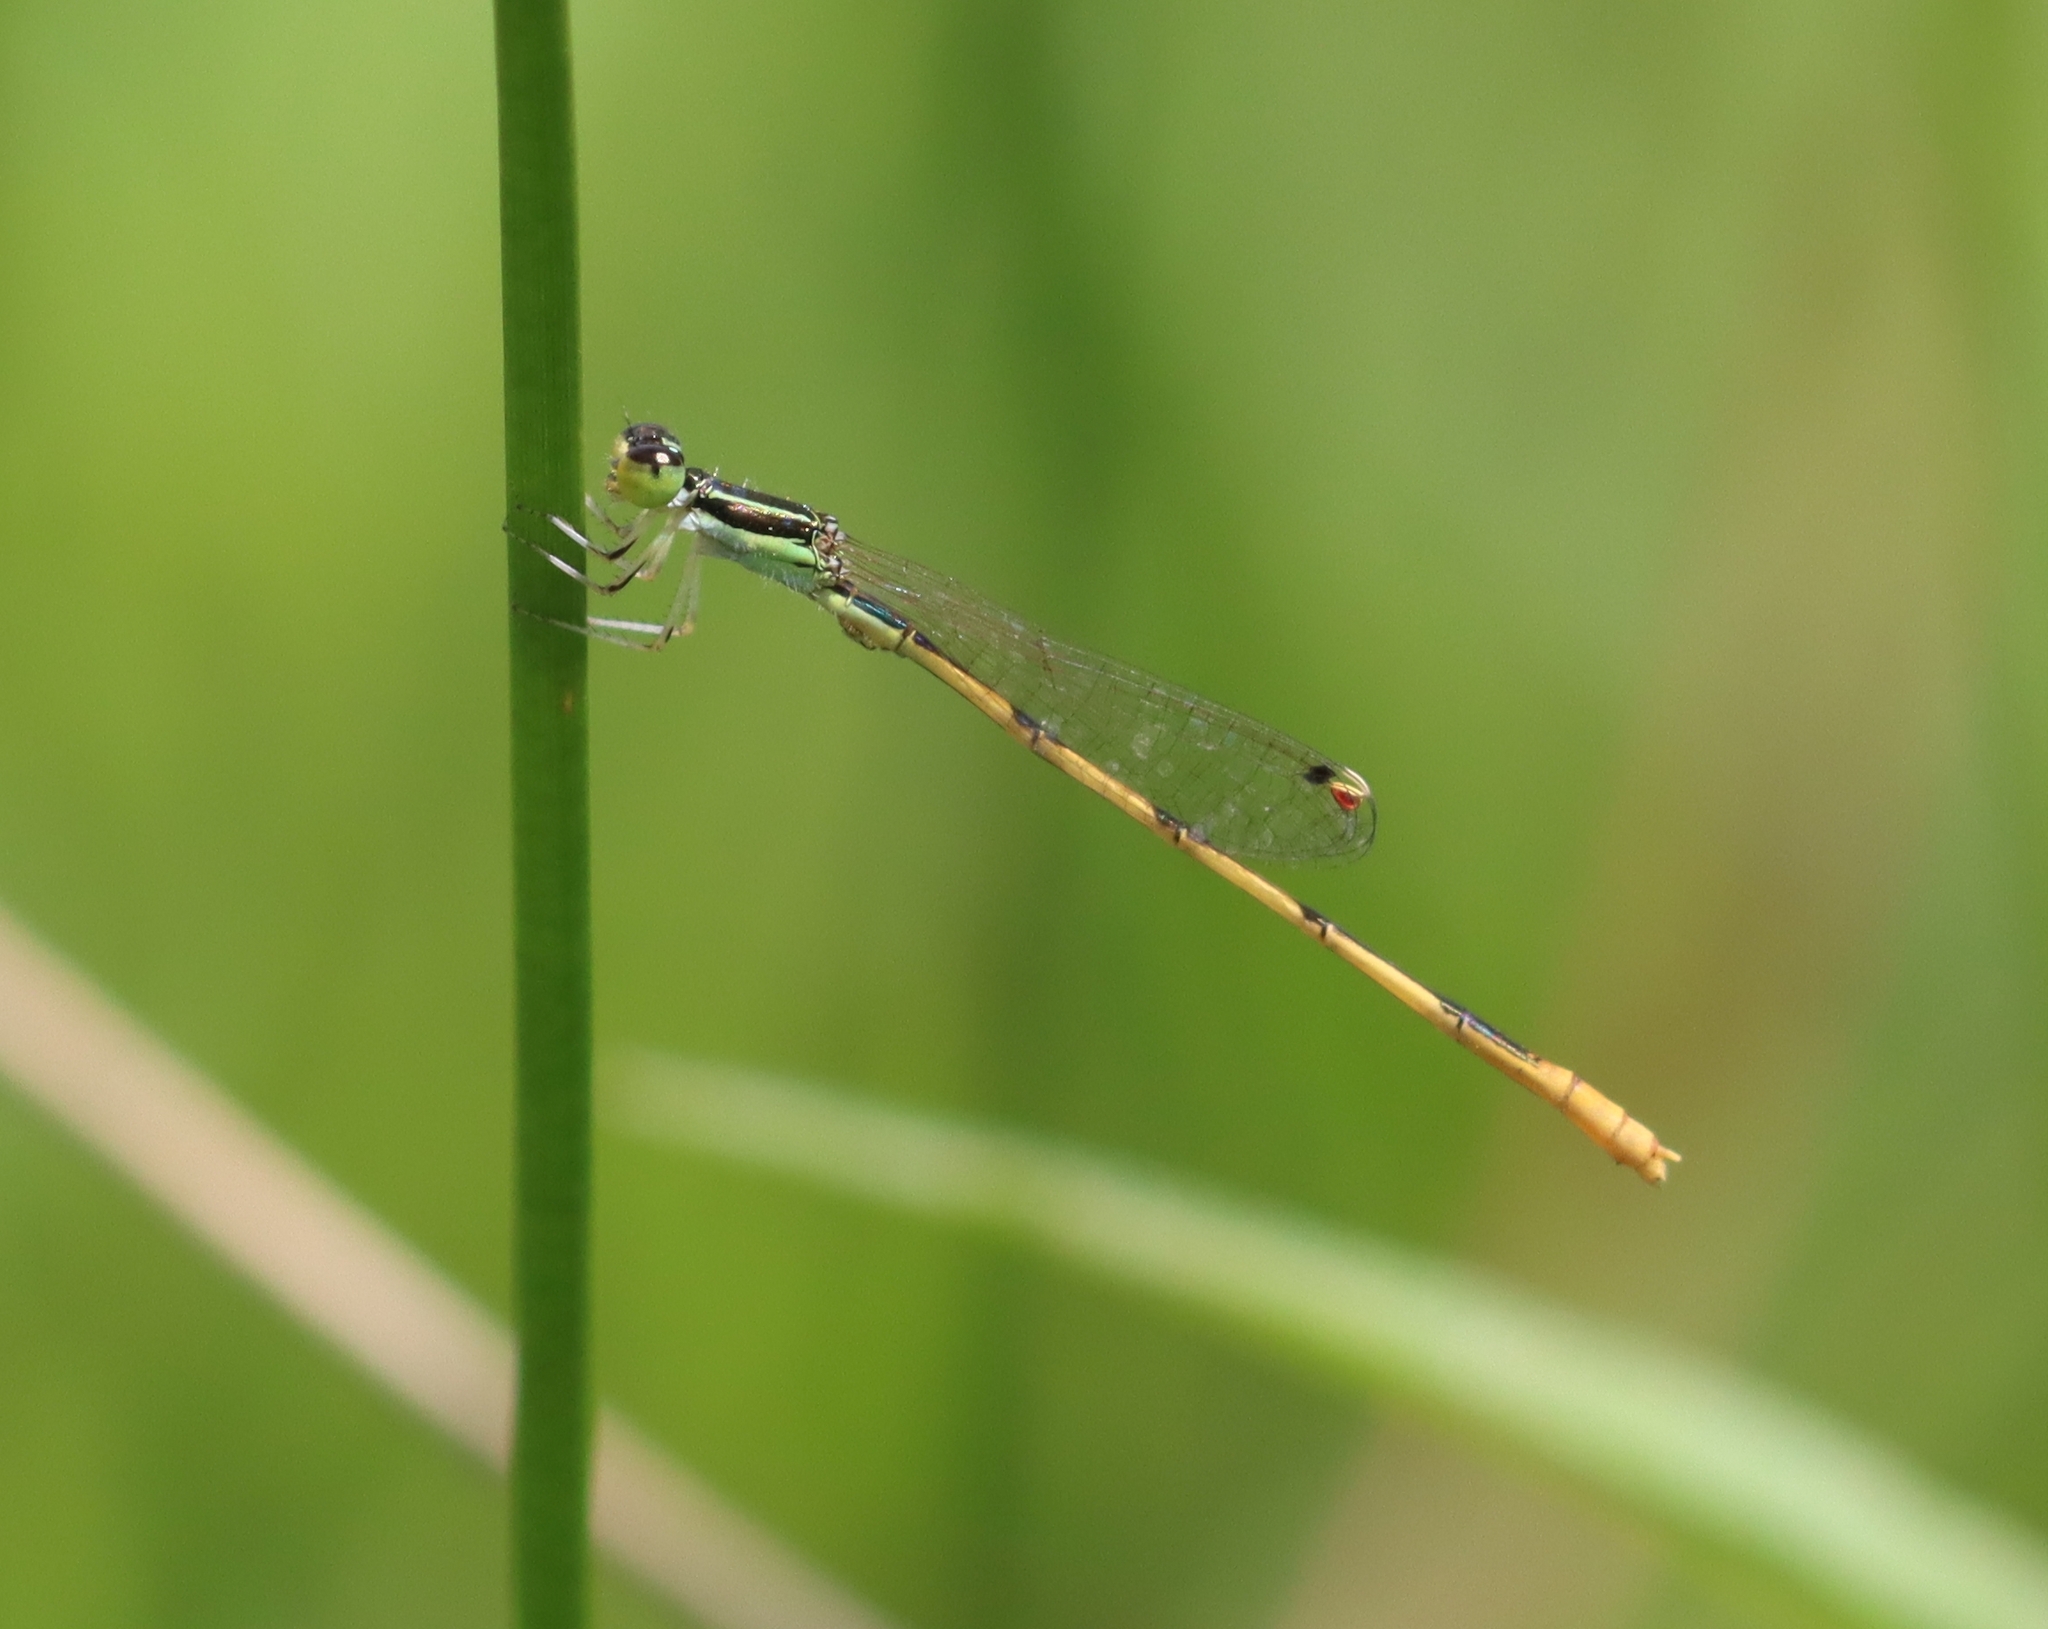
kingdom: Animalia
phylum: Arthropoda
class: Insecta
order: Odonata
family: Coenagrionidae
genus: Ischnura
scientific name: Ischnura hastata
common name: Citrine forktail
